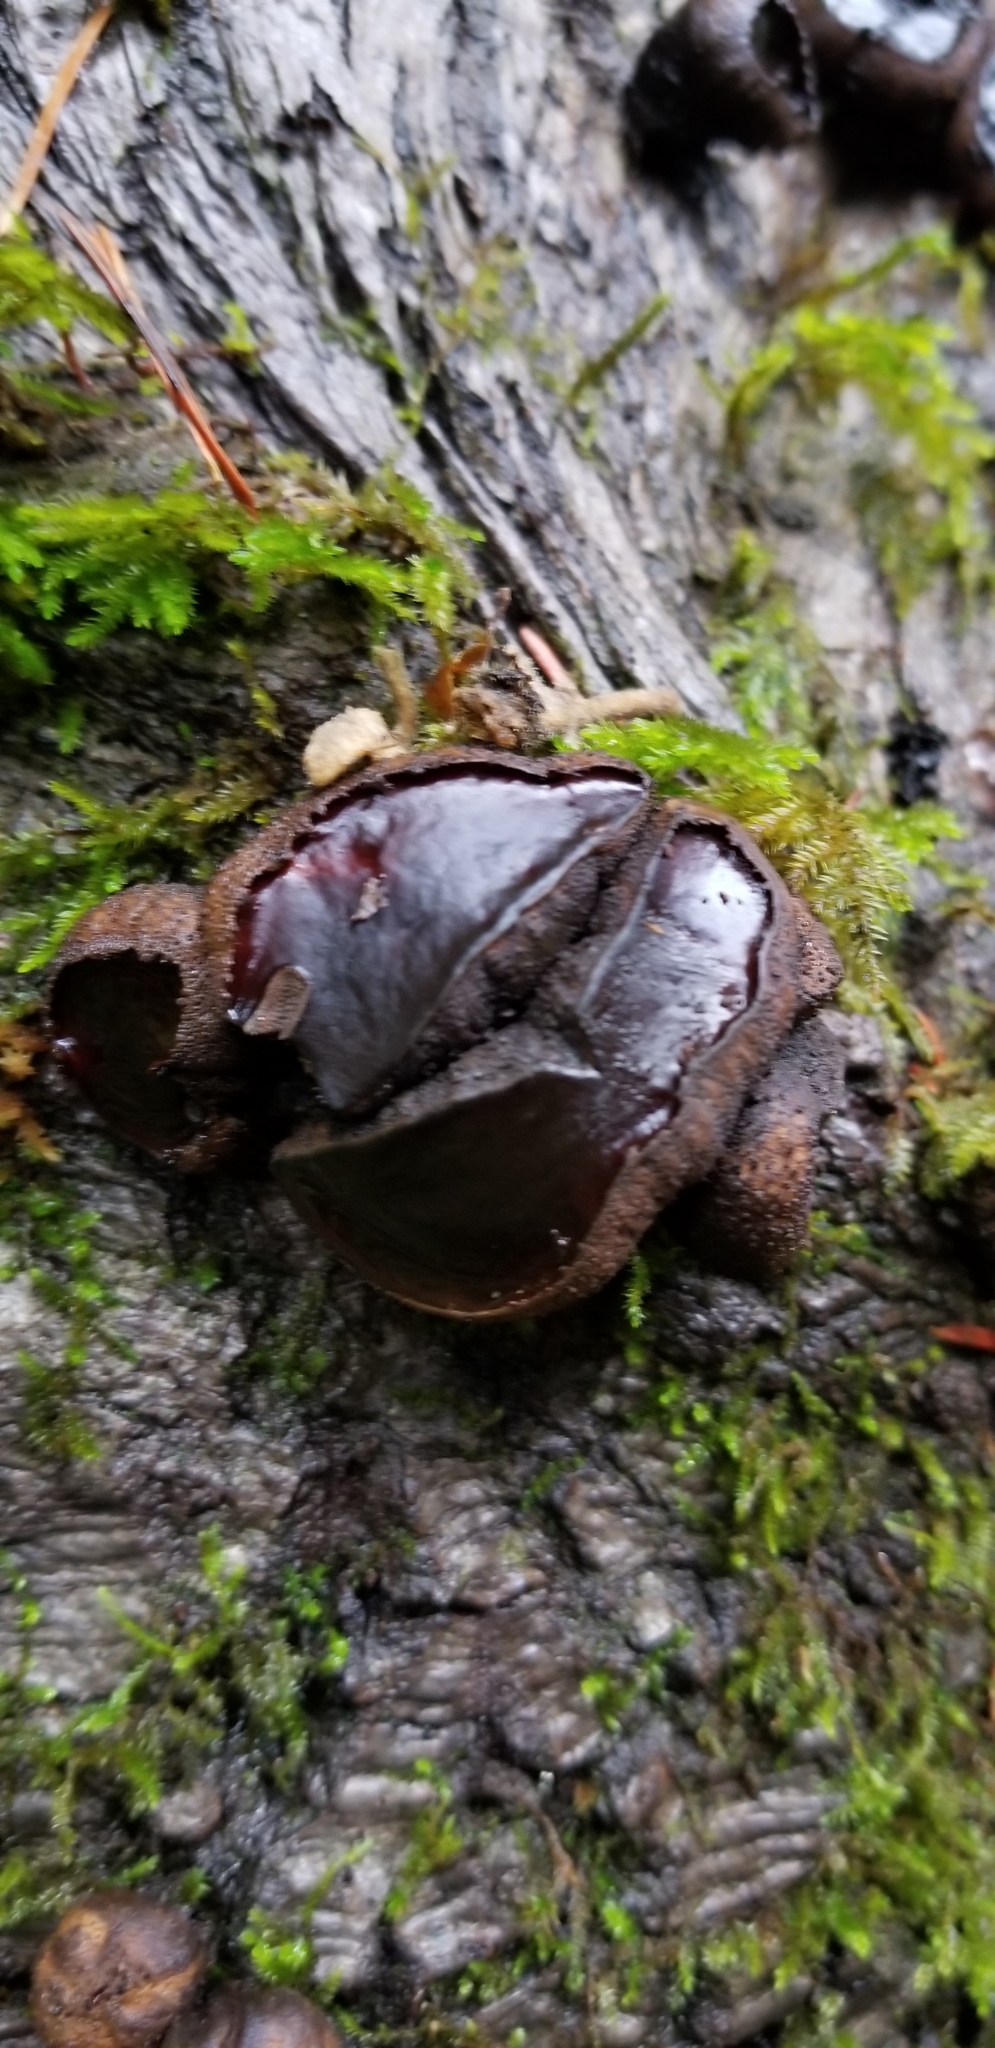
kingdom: Fungi
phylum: Ascomycota
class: Leotiomycetes
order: Phacidiales
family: Phacidiaceae
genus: Bulgaria
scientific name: Bulgaria inquinans
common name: Black bulgar
